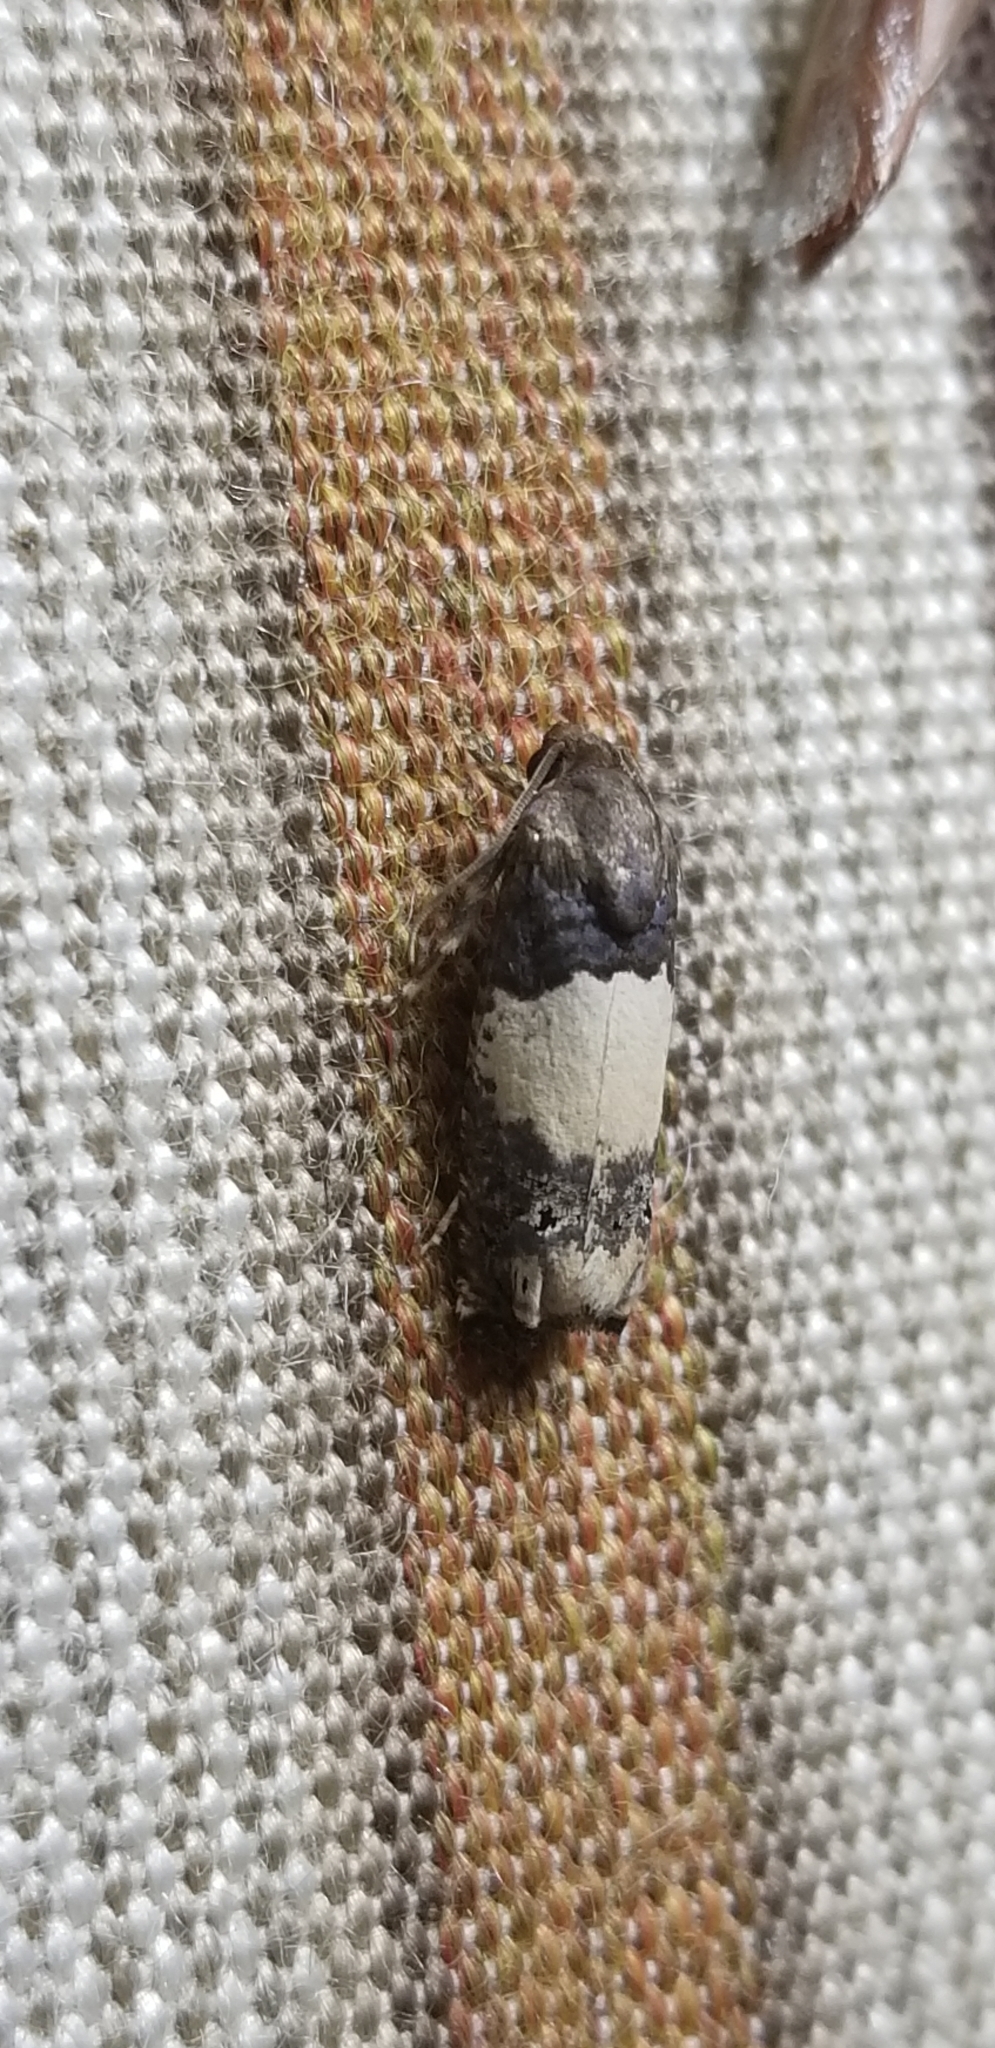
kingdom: Animalia
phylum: Arthropoda
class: Insecta
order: Lepidoptera
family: Tortricidae
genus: Epiblema
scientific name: Epiblema scudderiana
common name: Goldenrod gall moth
